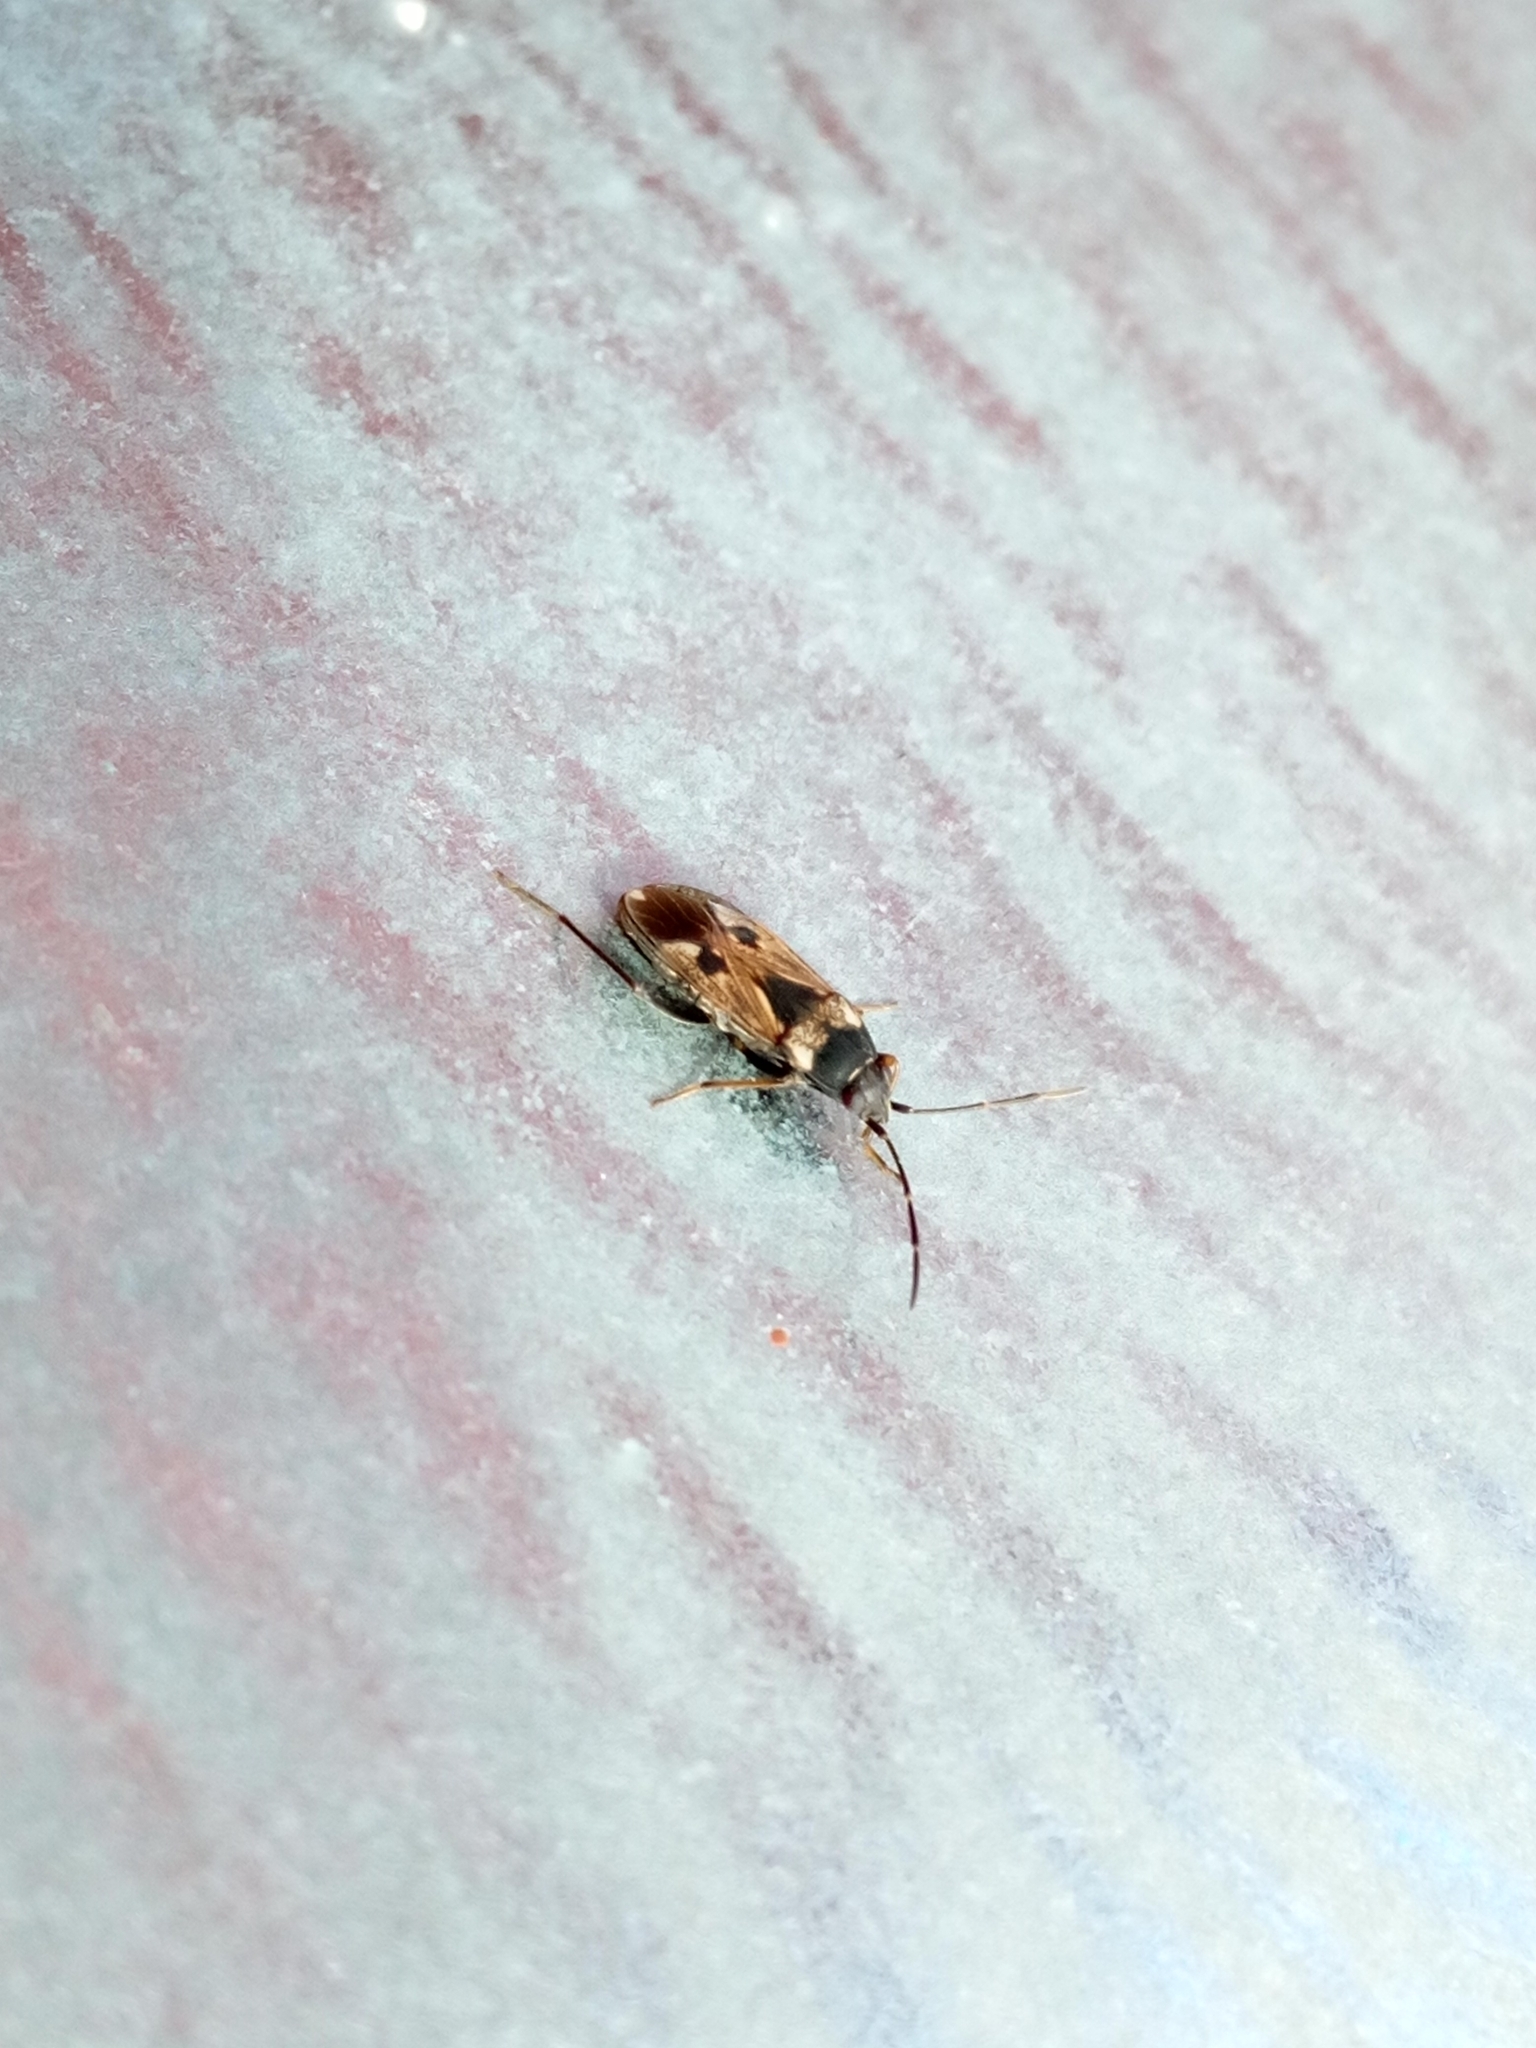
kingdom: Animalia
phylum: Arthropoda
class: Insecta
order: Hemiptera
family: Rhyparochromidae
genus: Rhyparochromus
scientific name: Rhyparochromus vulgaris
